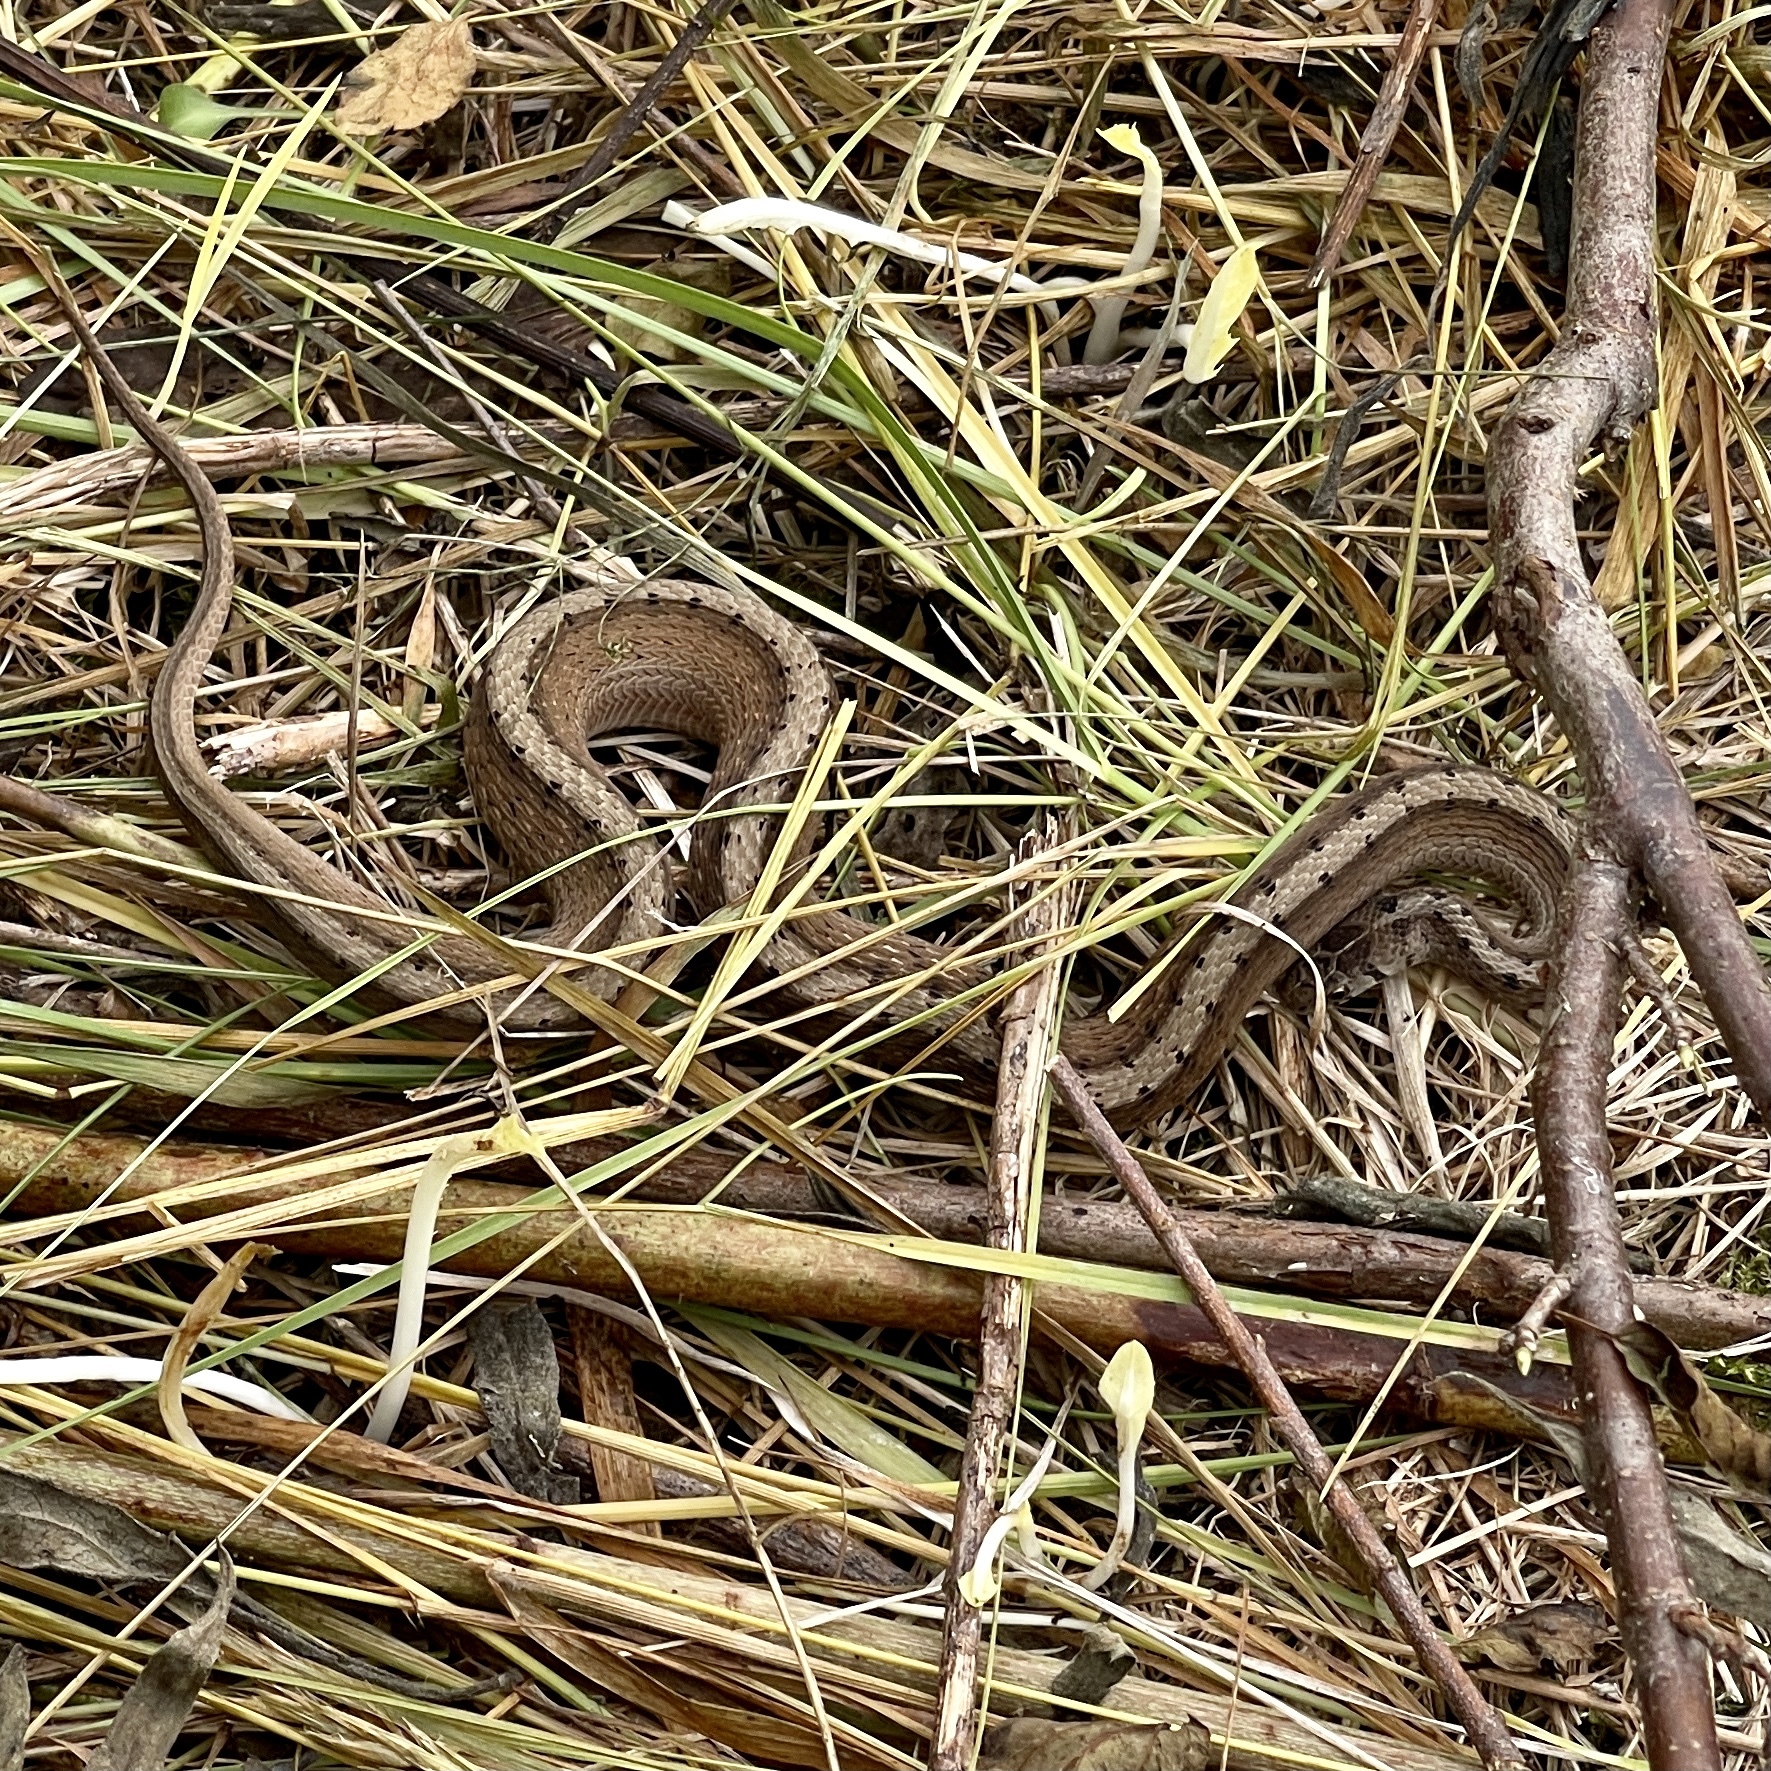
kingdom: Animalia
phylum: Chordata
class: Squamata
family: Colubridae
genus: Storeria
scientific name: Storeria dekayi
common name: (dekay’s) brown snake
